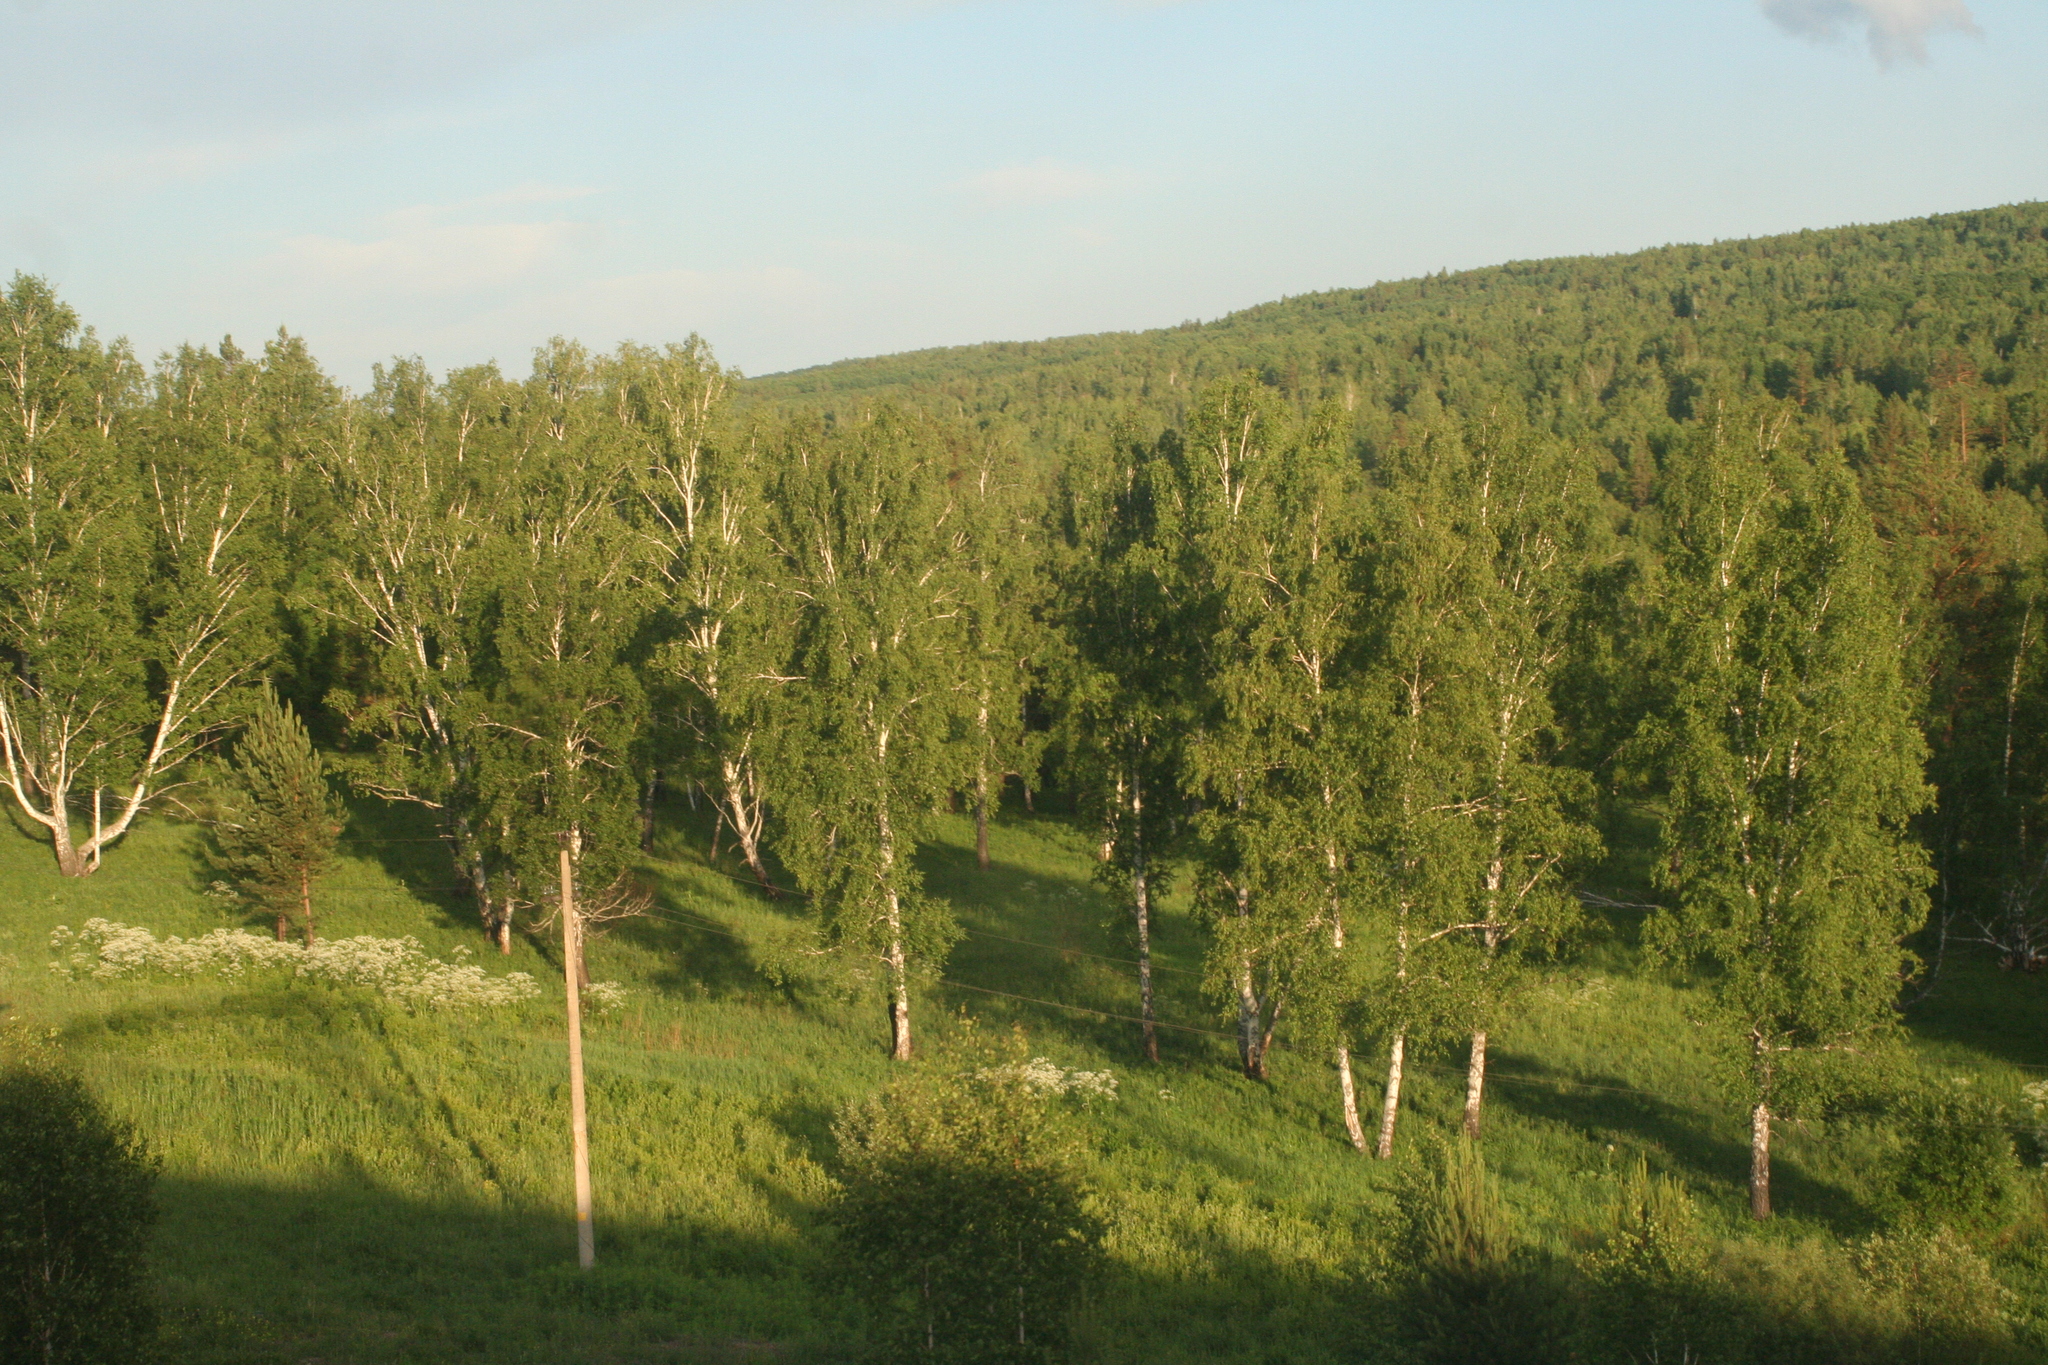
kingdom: Plantae
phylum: Tracheophyta
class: Pinopsida
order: Pinales
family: Pinaceae
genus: Pinus
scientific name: Pinus sylvestris
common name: Scots pine
